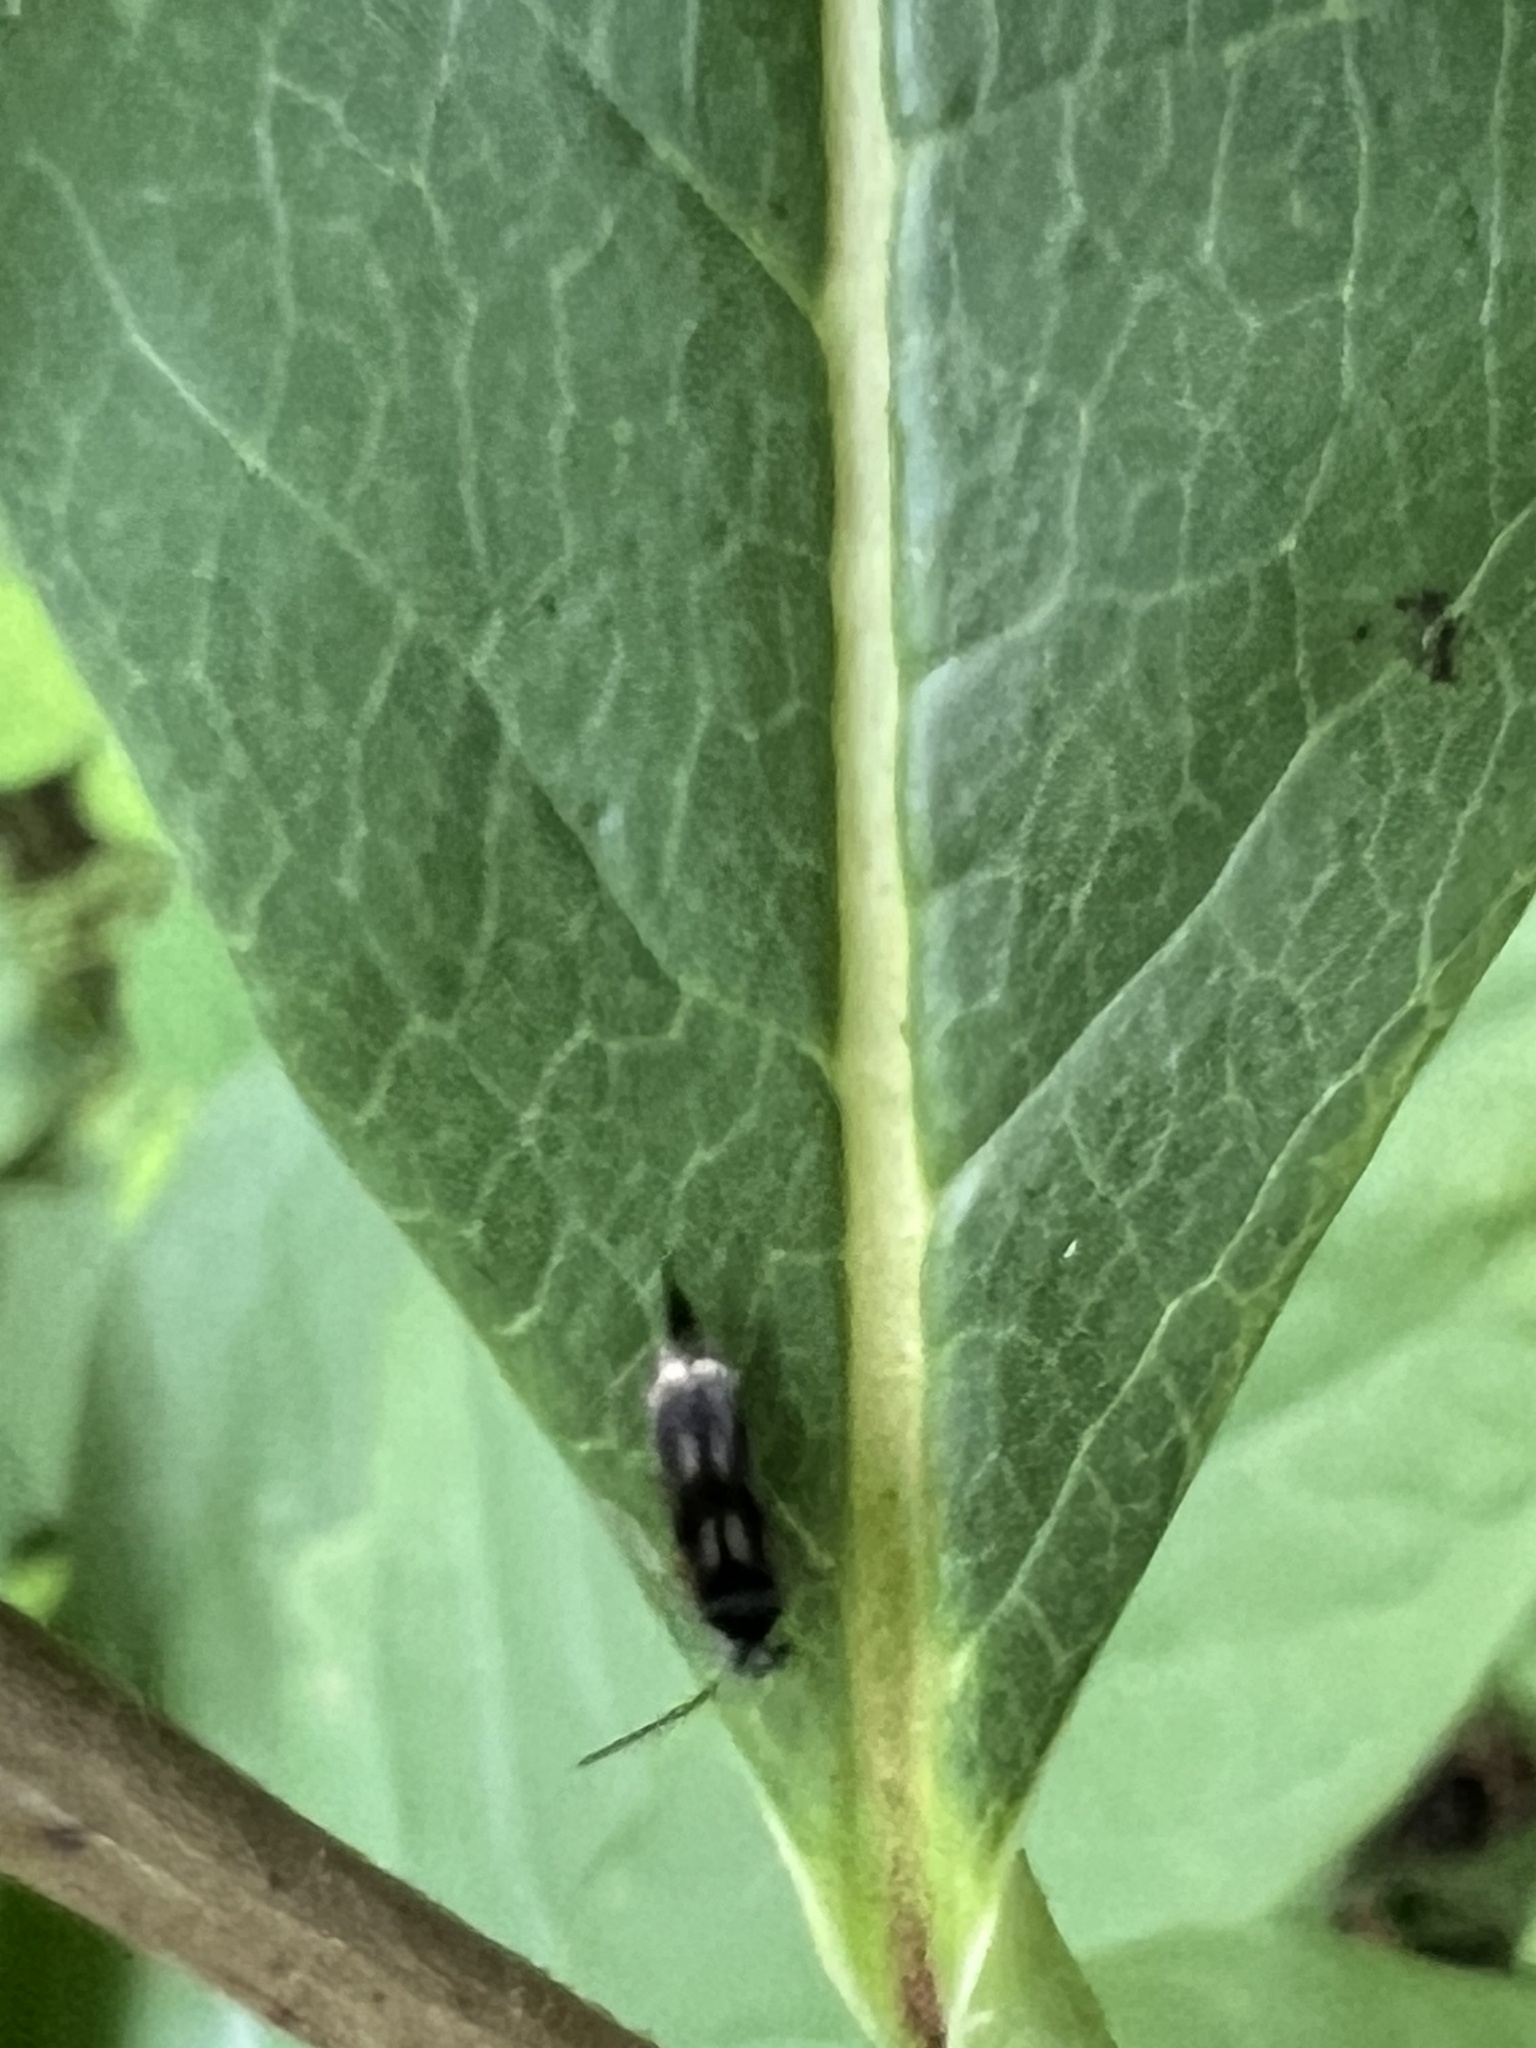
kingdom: Animalia
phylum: Arthropoda
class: Insecta
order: Coleoptera
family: Mordellidae
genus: Falsomordellistena
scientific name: Falsomordellistena bihamata
